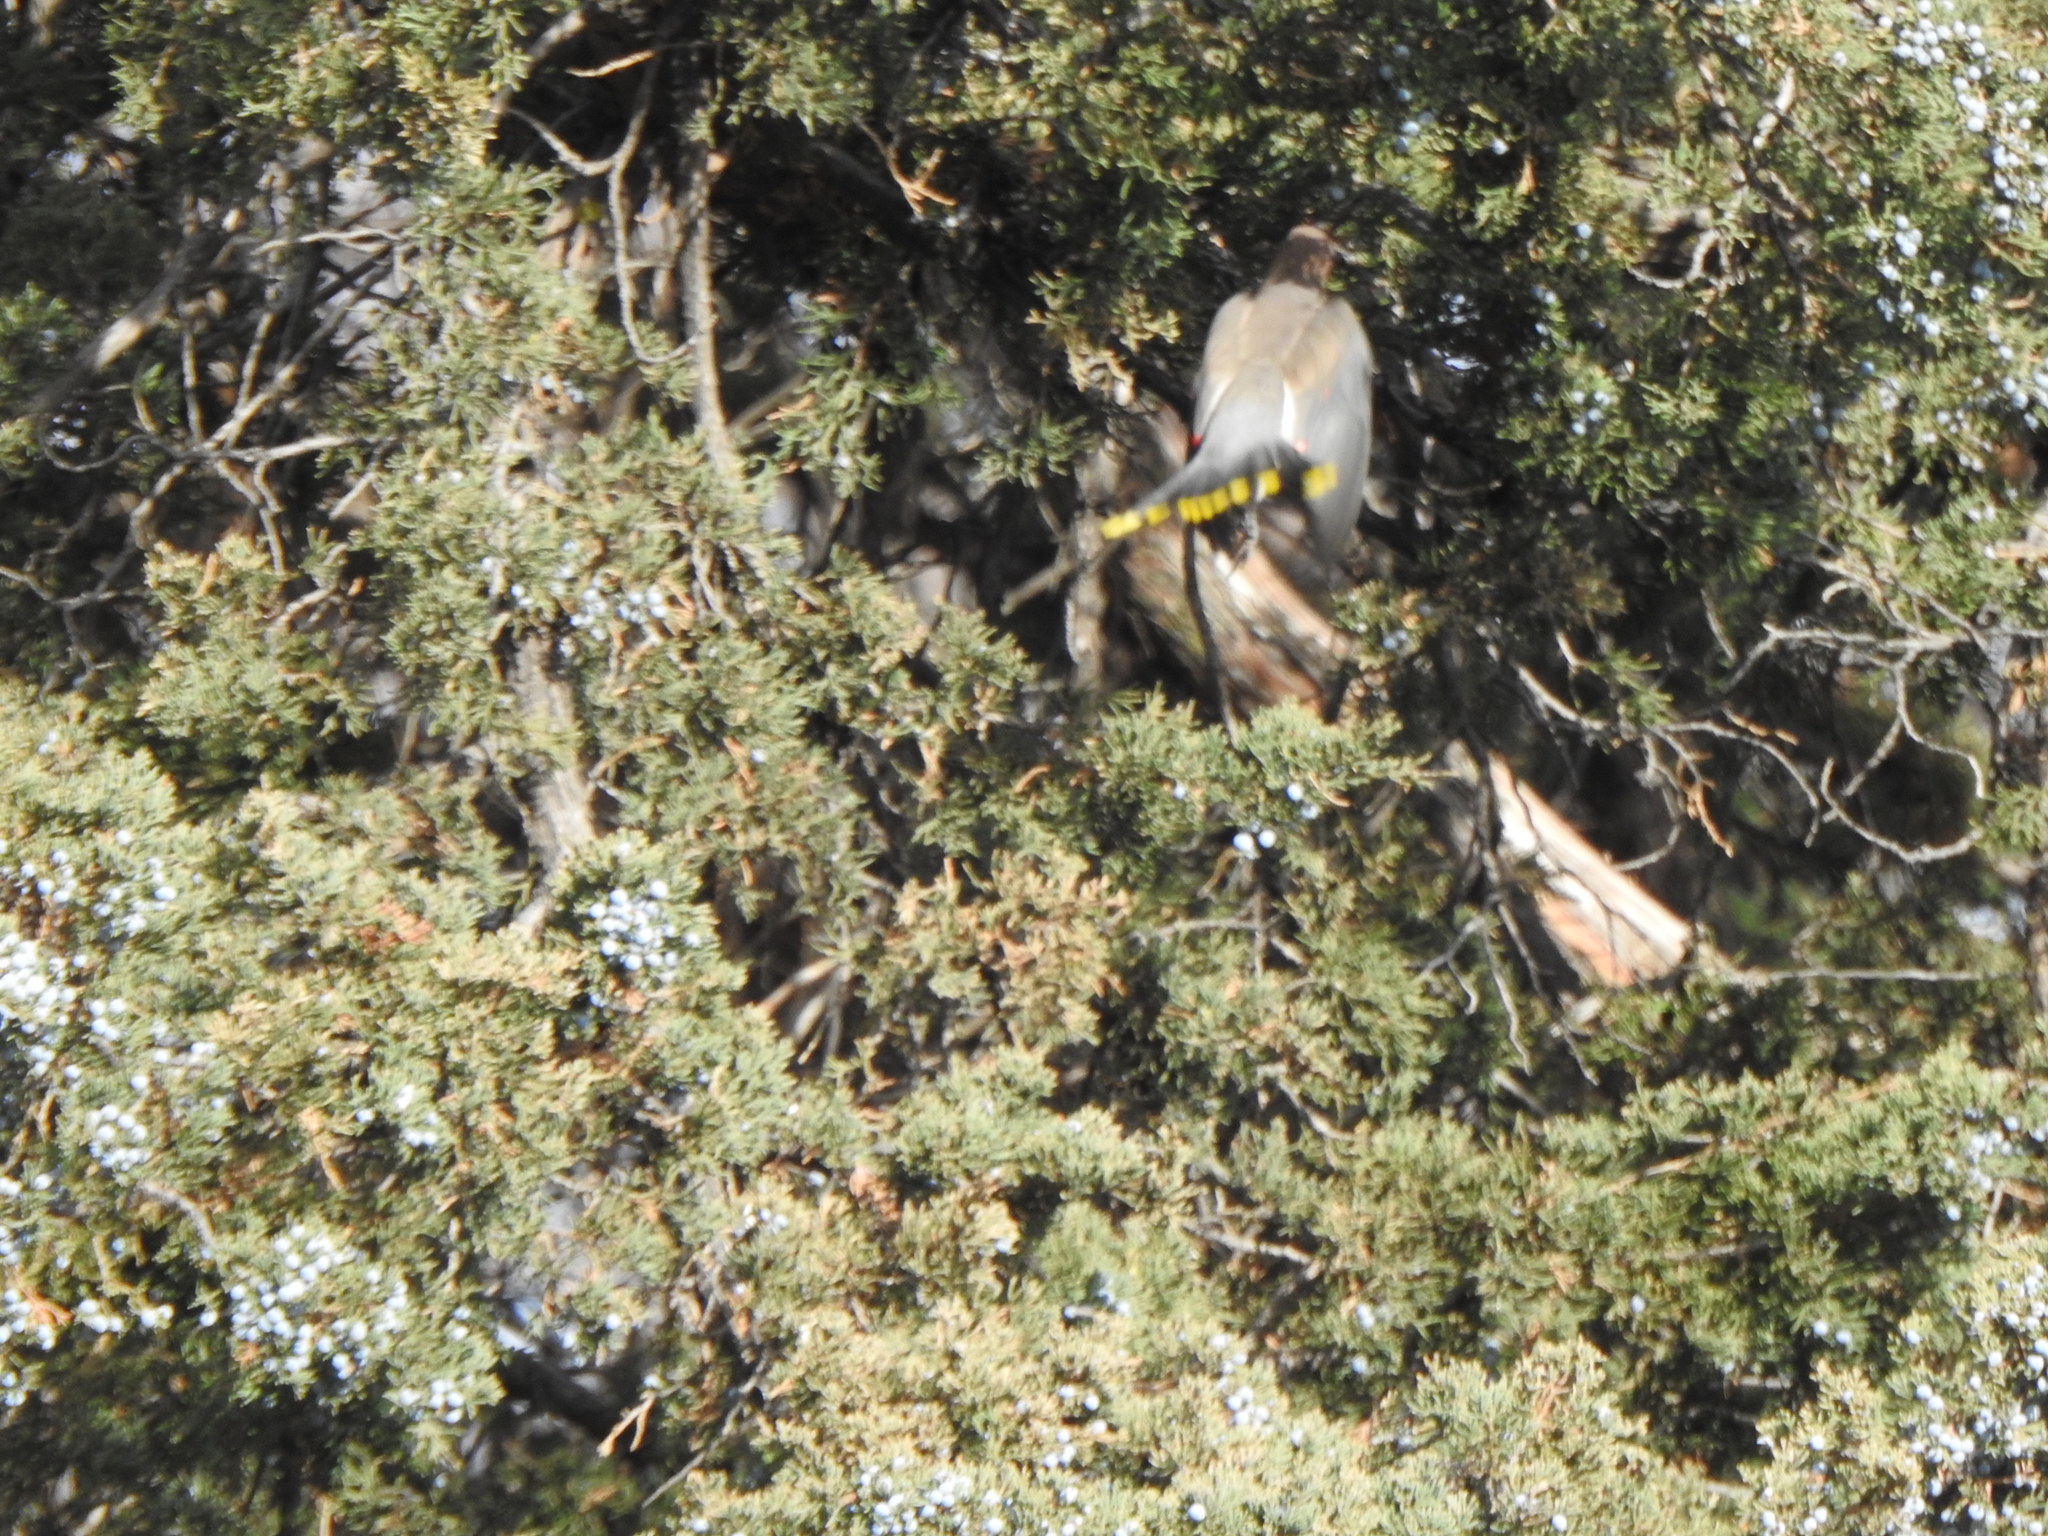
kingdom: Animalia
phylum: Chordata
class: Aves
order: Passeriformes
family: Bombycillidae
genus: Bombycilla
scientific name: Bombycilla cedrorum
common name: Cedar waxwing
